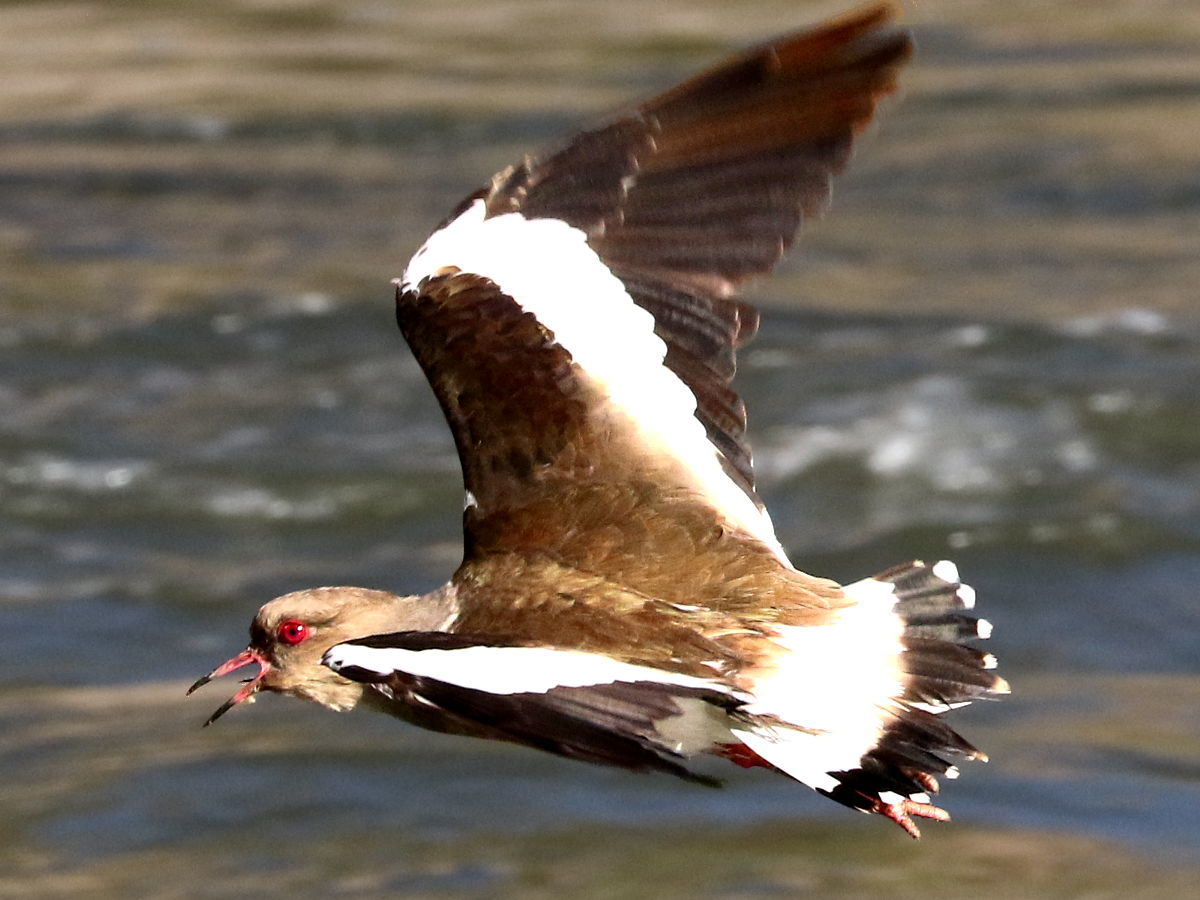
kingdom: Animalia
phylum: Chordata
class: Aves
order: Charadriiformes
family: Charadriidae
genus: Vanellus
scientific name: Vanellus resplendens
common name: Andean lapwing
